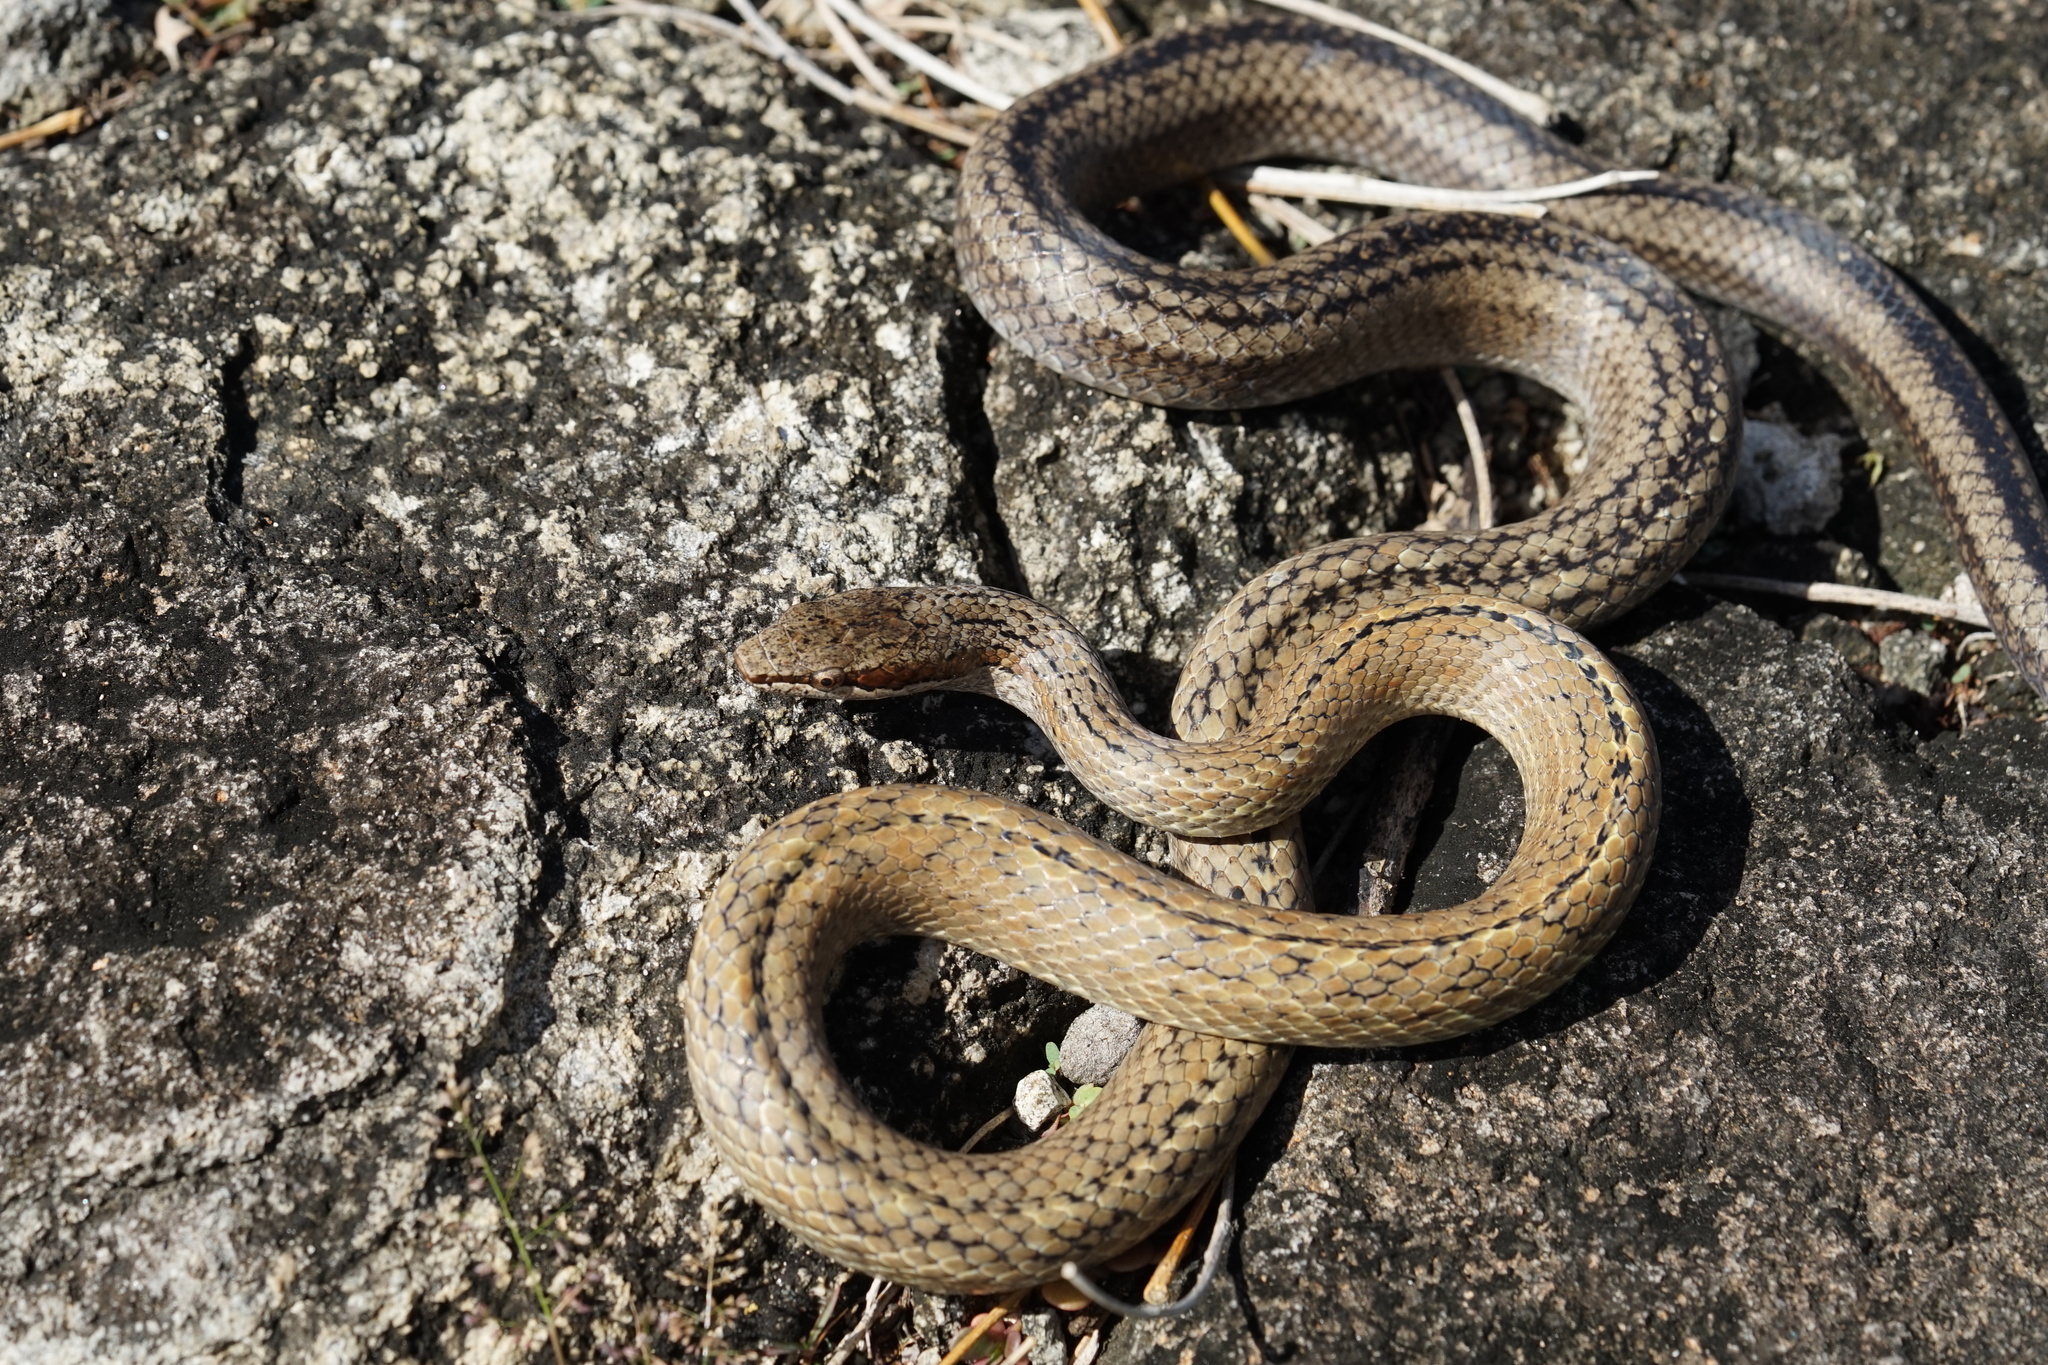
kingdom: Animalia
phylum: Chordata
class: Squamata
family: Colubridae
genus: Alsophis
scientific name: Alsophis sanctonum
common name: Terre-de-haut racer
